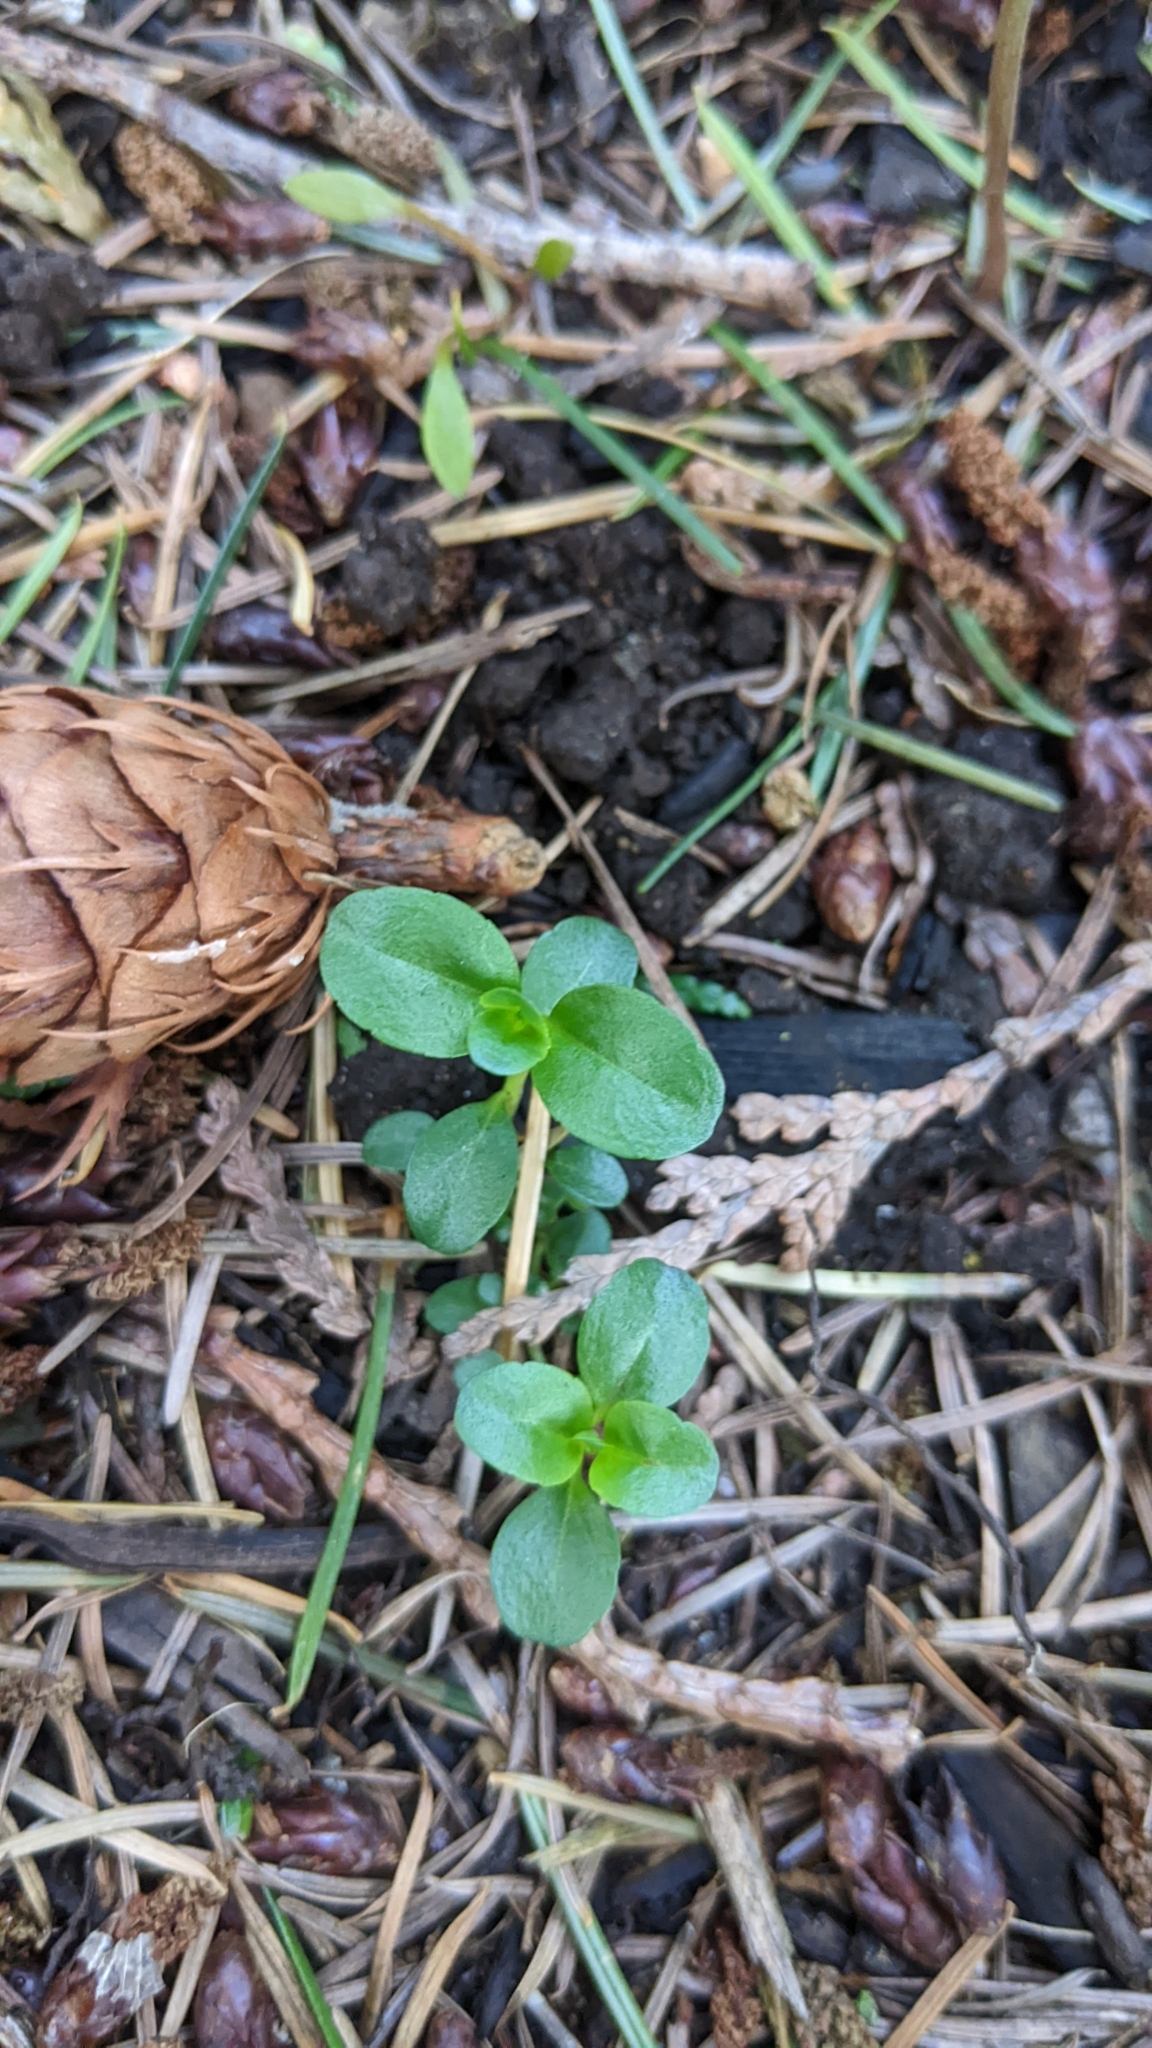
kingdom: Plantae
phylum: Tracheophyta
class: Magnoliopsida
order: Lamiales
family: Plantaginaceae
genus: Veronica
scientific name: Veronica serpyllifolia
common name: Thyme-leaved speedwell
